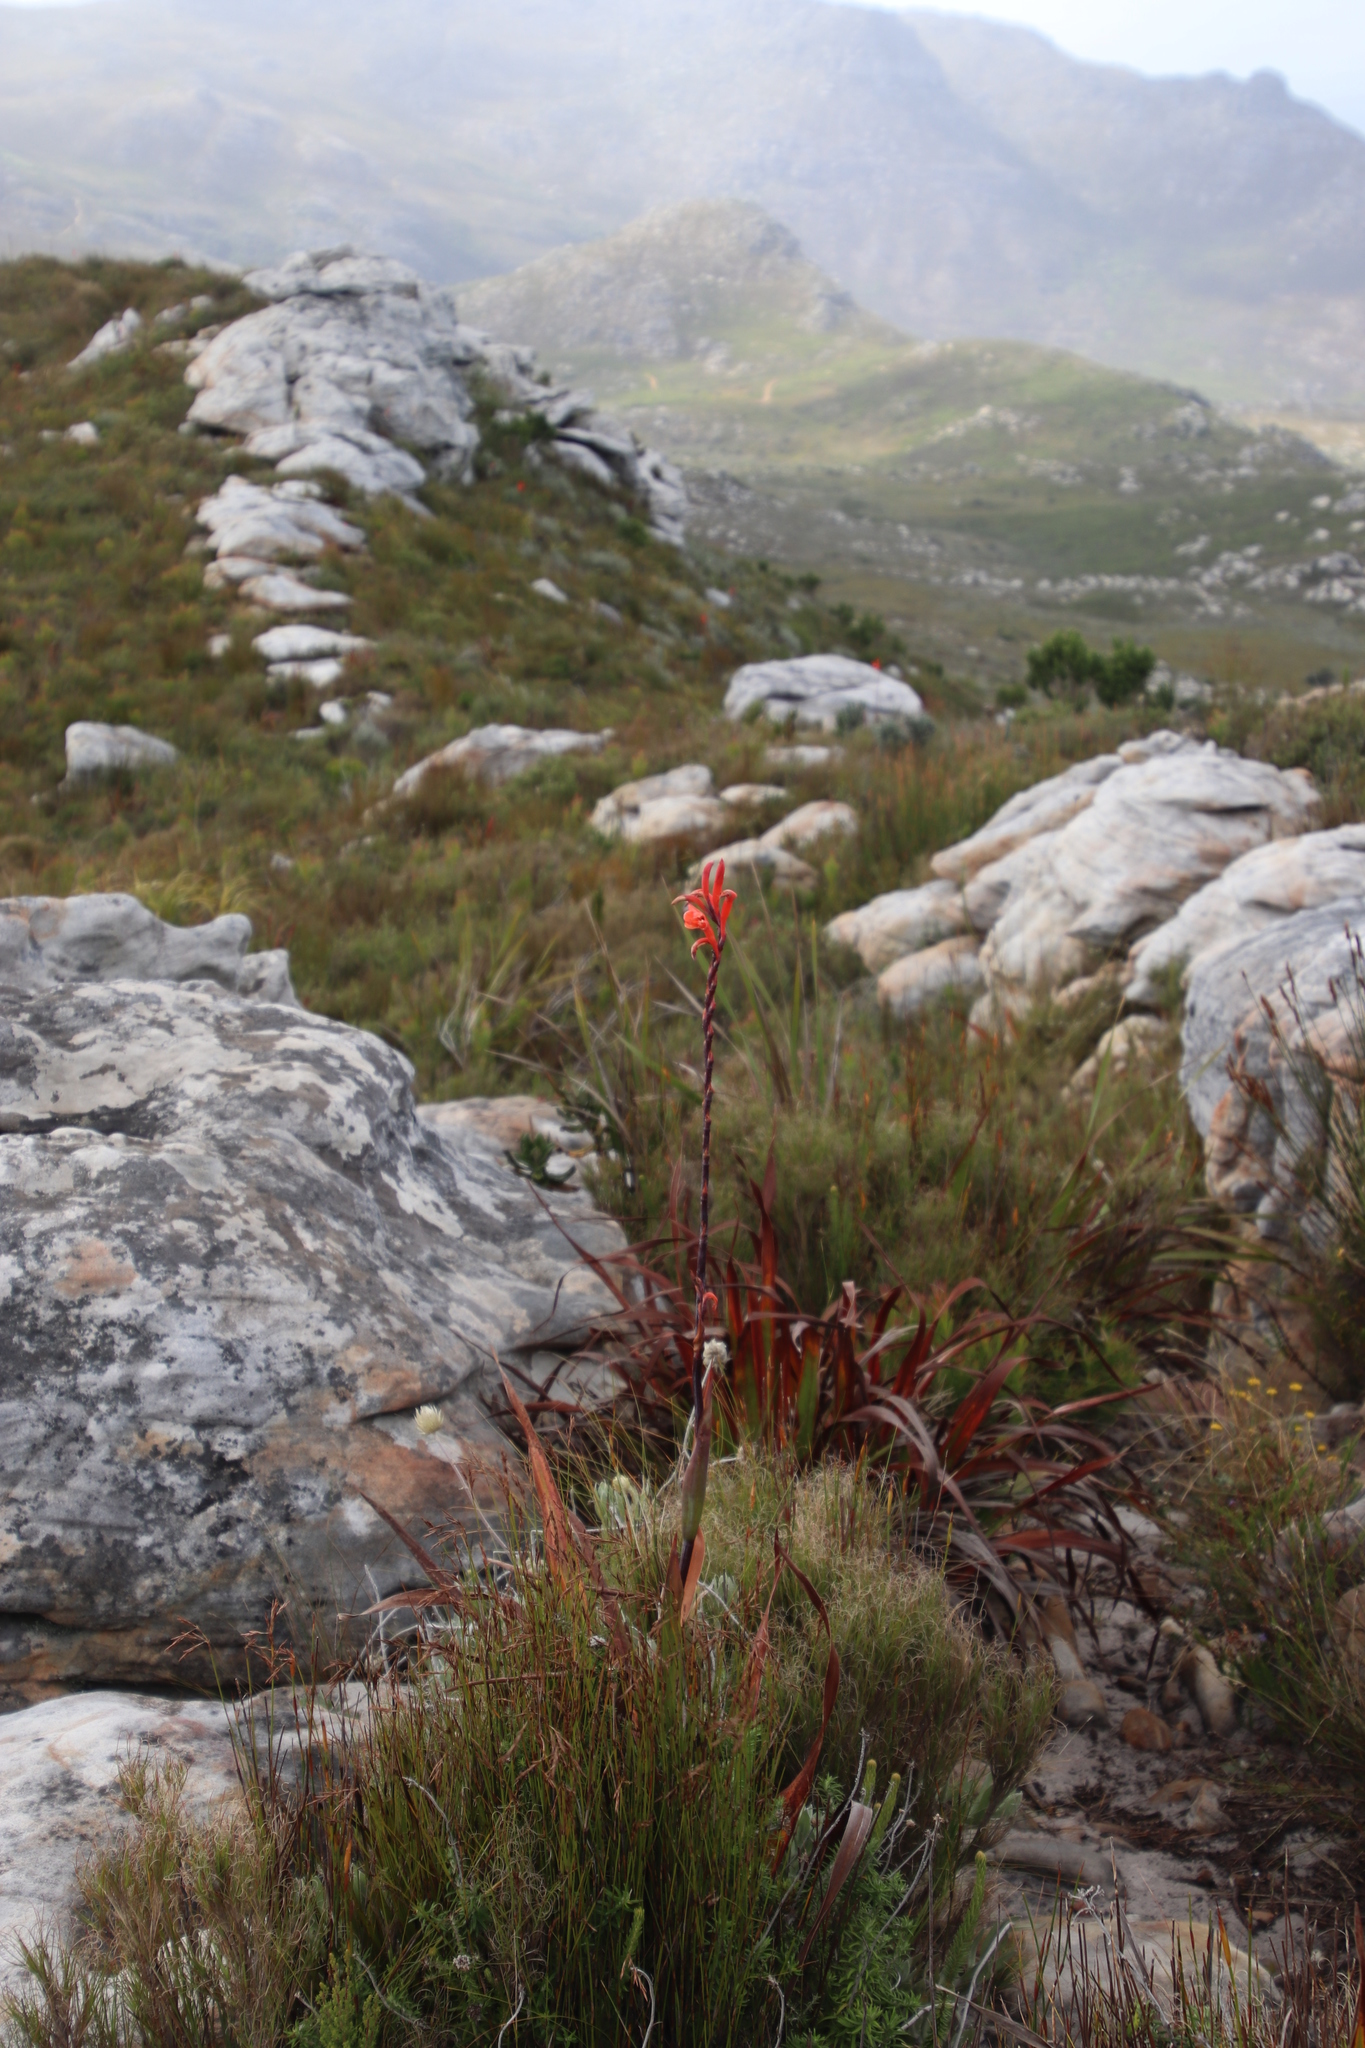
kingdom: Plantae
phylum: Tracheophyta
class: Liliopsida
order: Asparagales
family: Iridaceae
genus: Watsonia
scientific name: Watsonia tabularis
